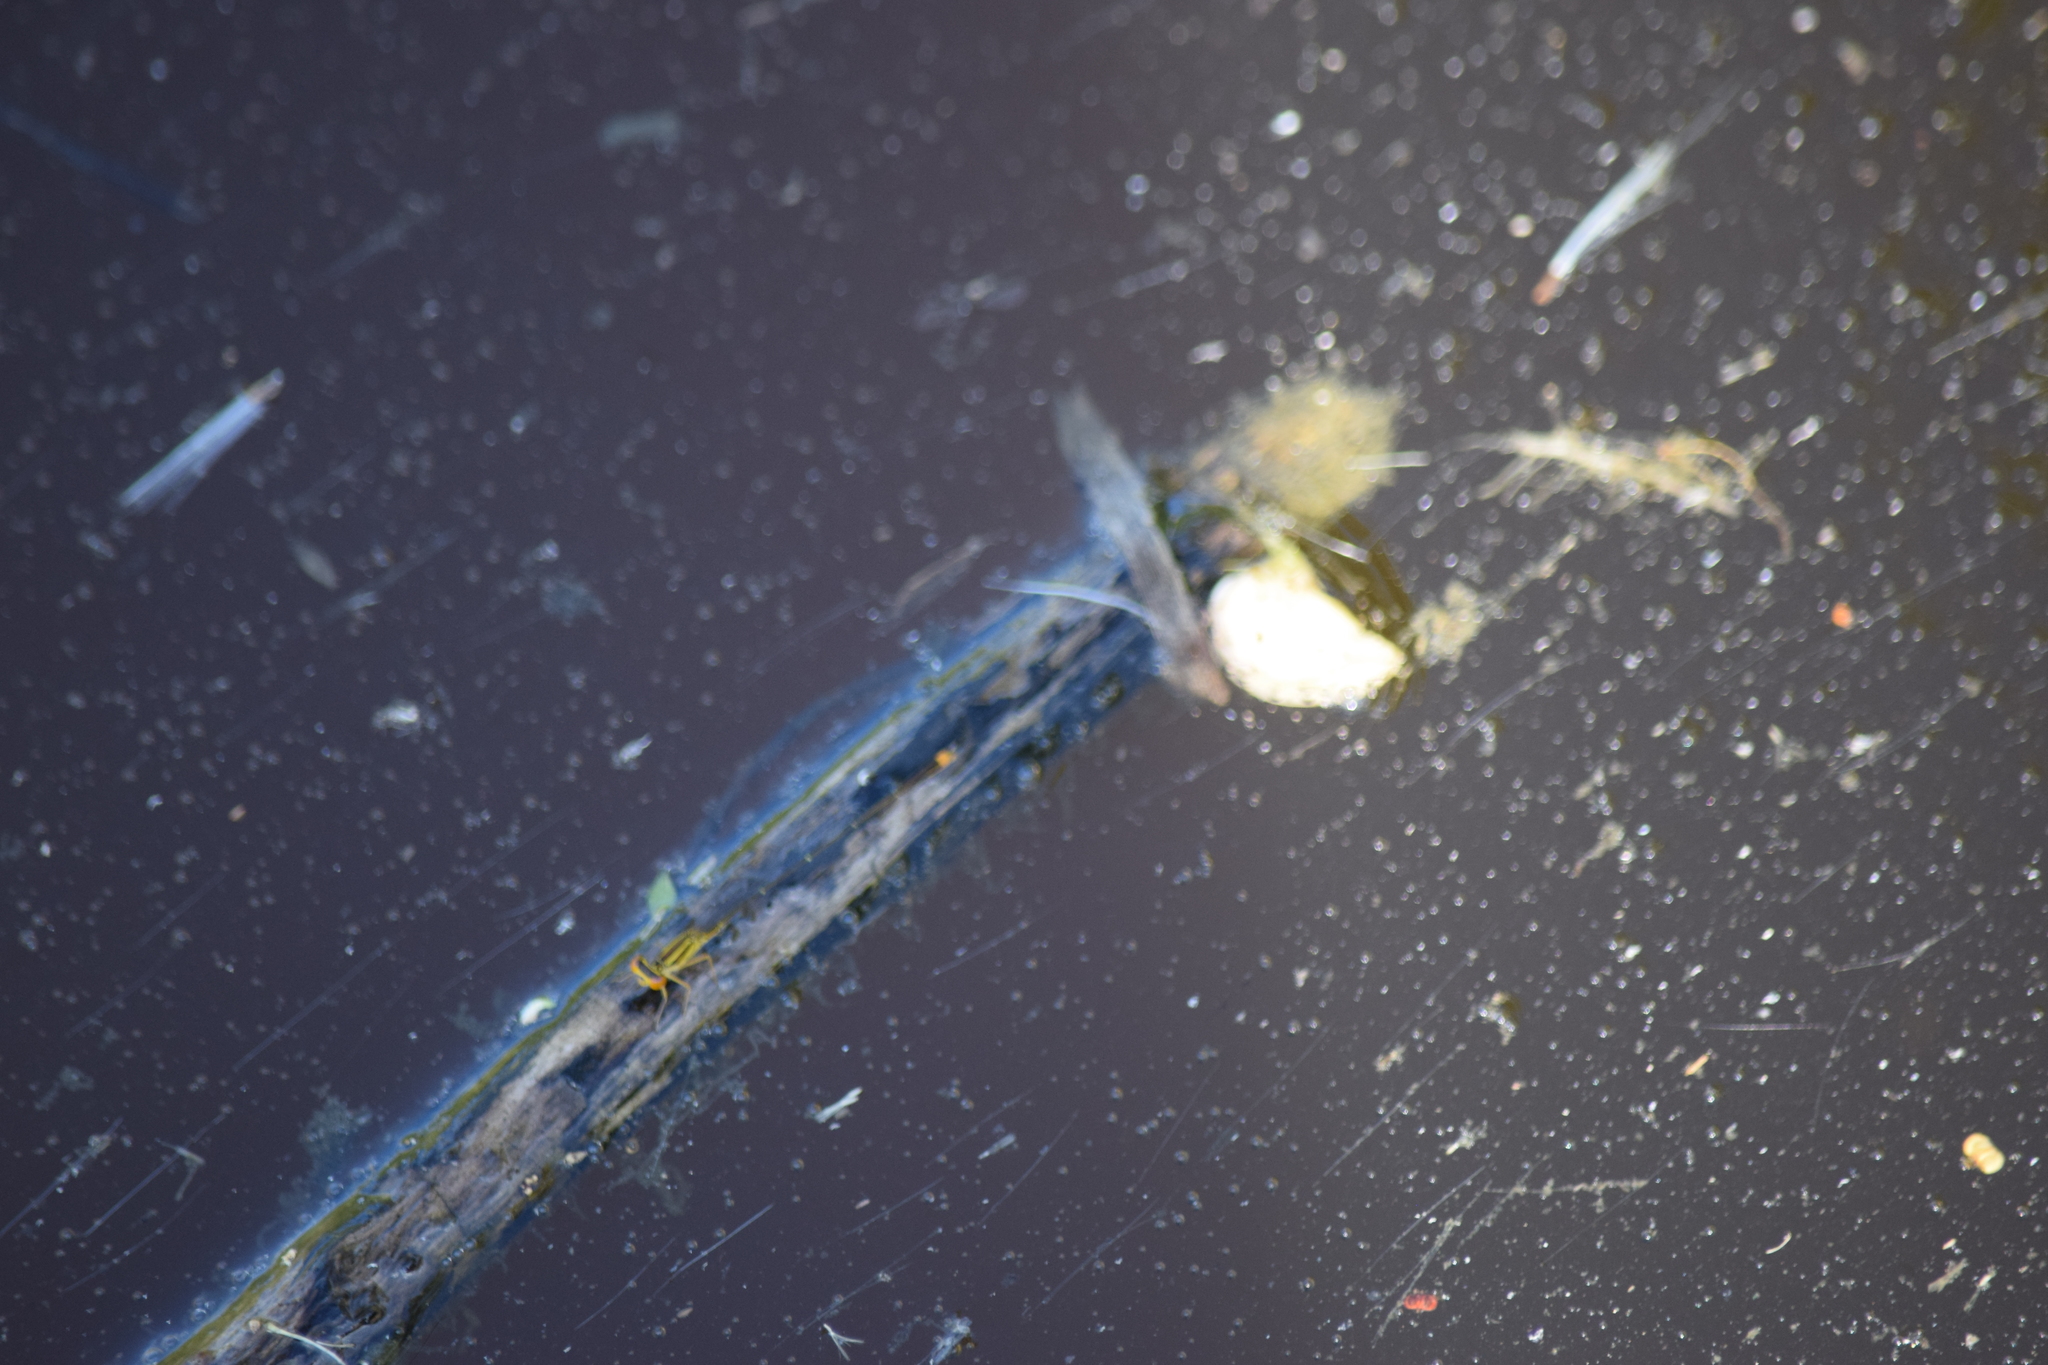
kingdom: Animalia
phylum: Arthropoda
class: Insecta
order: Odonata
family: Coenagrionidae
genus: Enallagma
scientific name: Enallagma signatum
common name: Orange bluet
